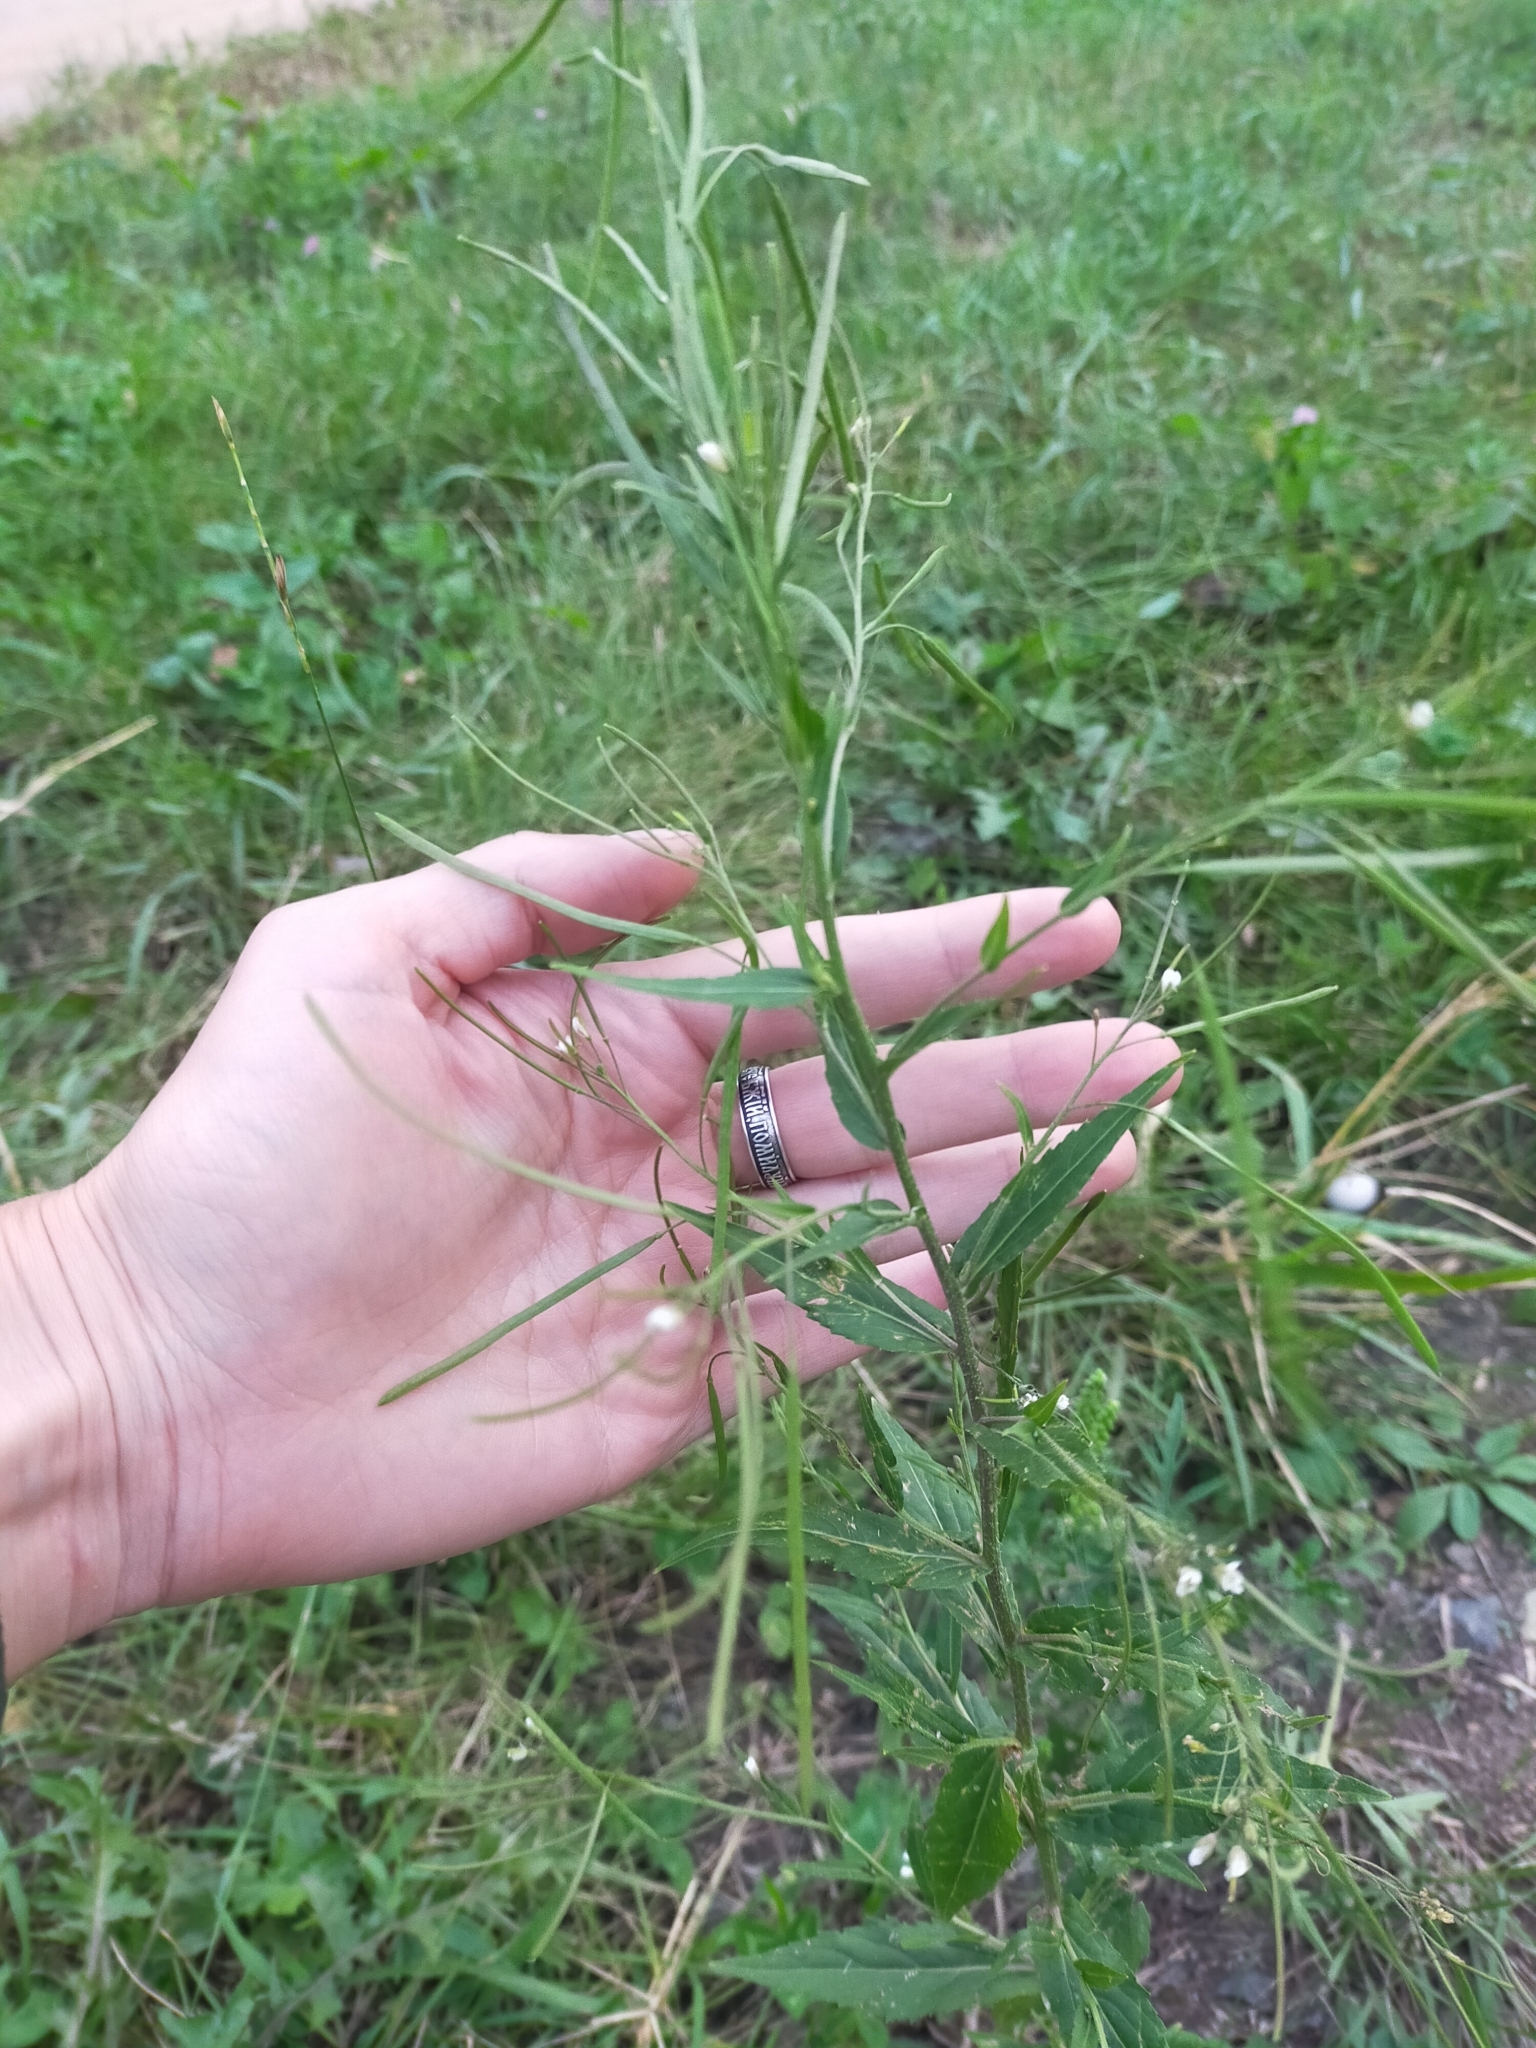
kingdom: Plantae
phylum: Tracheophyta
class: Magnoliopsida
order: Brassicales
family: Brassicaceae
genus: Catolobus
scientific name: Catolobus pendulus
